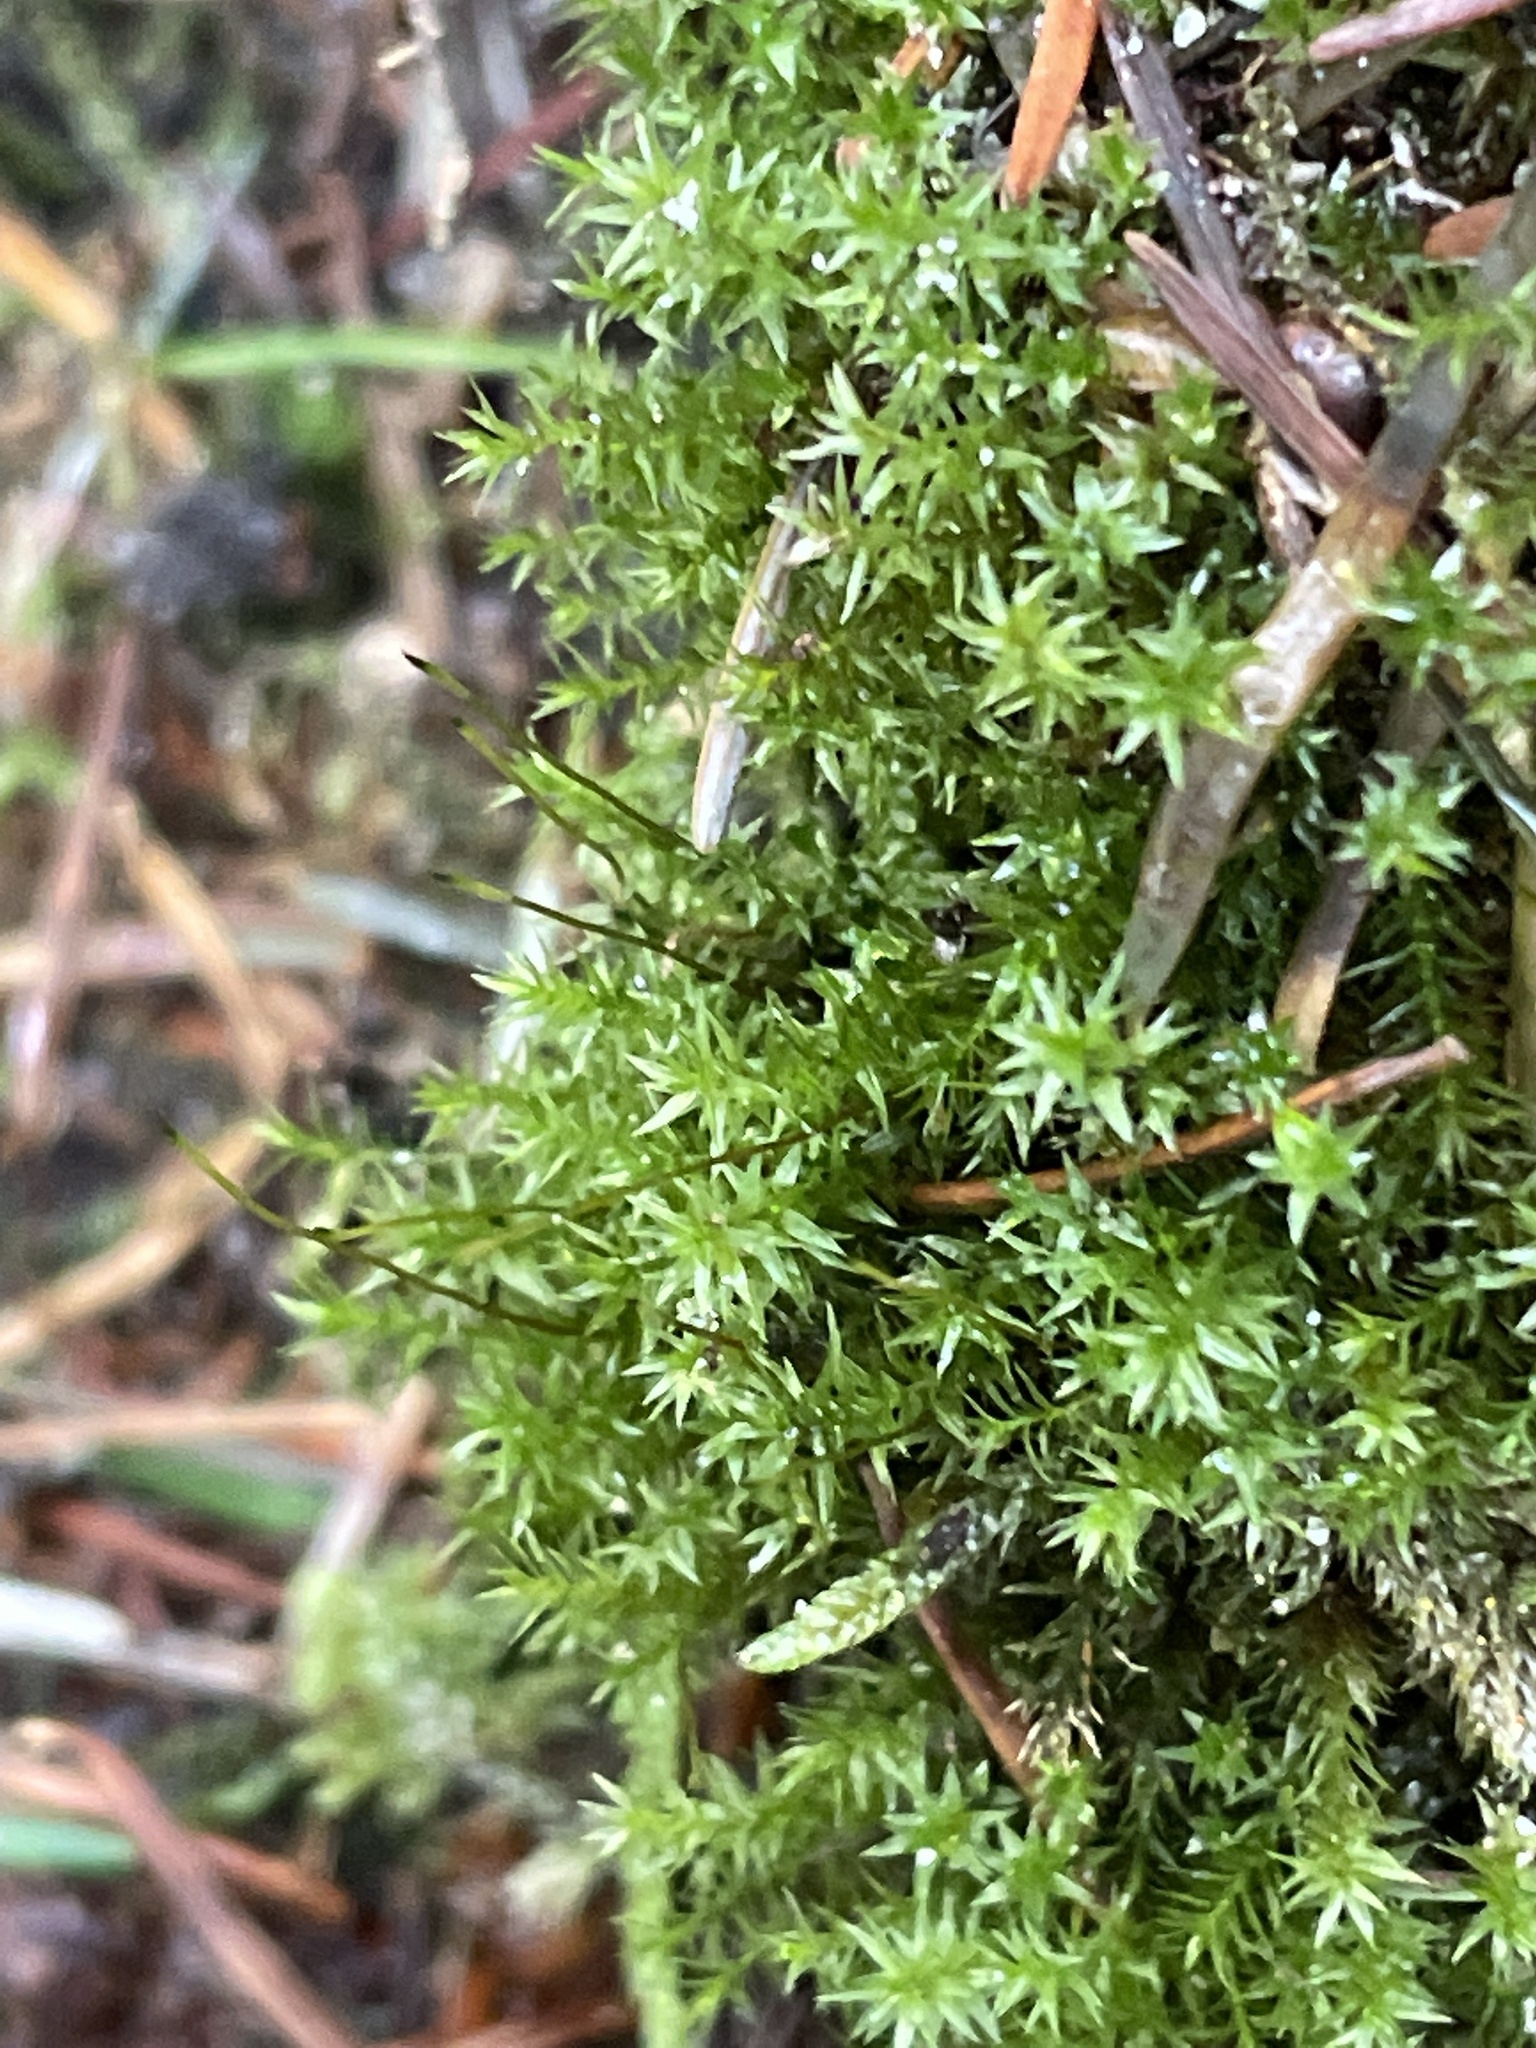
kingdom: Plantae
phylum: Bryophyta
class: Bryopsida
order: Bryales
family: Mniaceae
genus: Pohlia
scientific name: Pohlia nutans
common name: Nodding thread-moss
